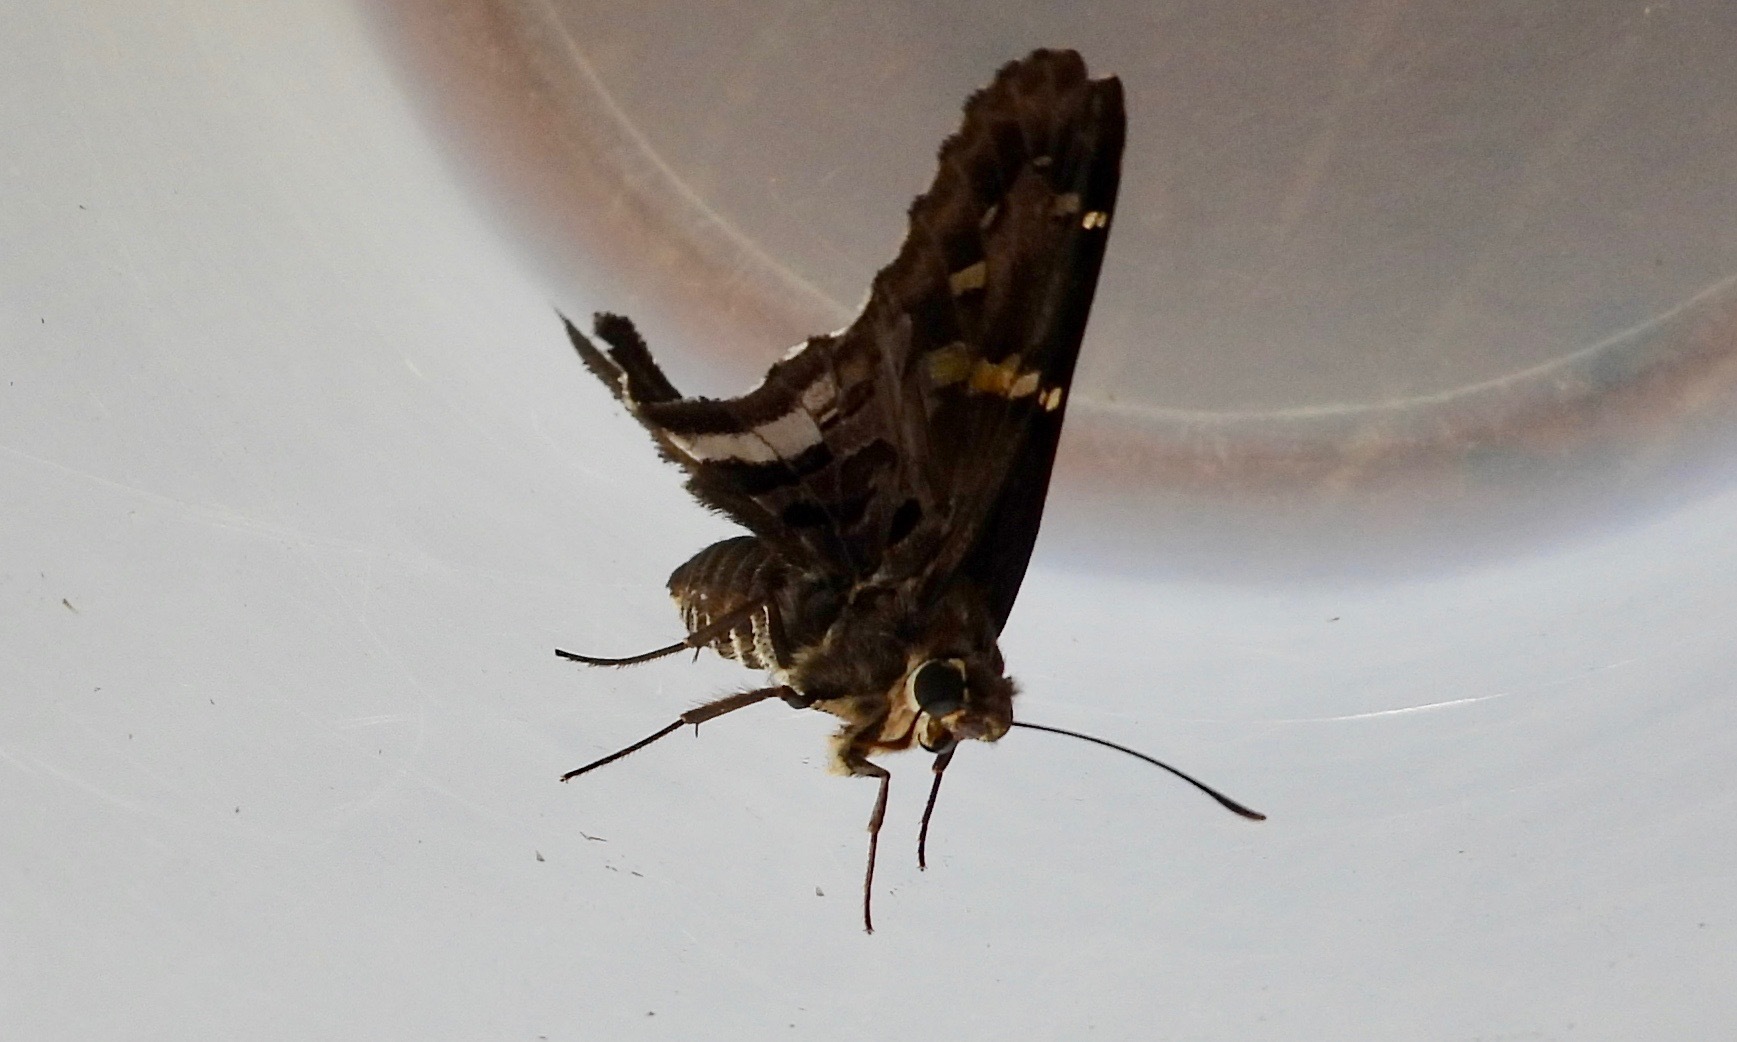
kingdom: Animalia
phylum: Arthropoda
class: Insecta
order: Lepidoptera
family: Hesperiidae
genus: Codatractus
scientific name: Codatractus carlos
